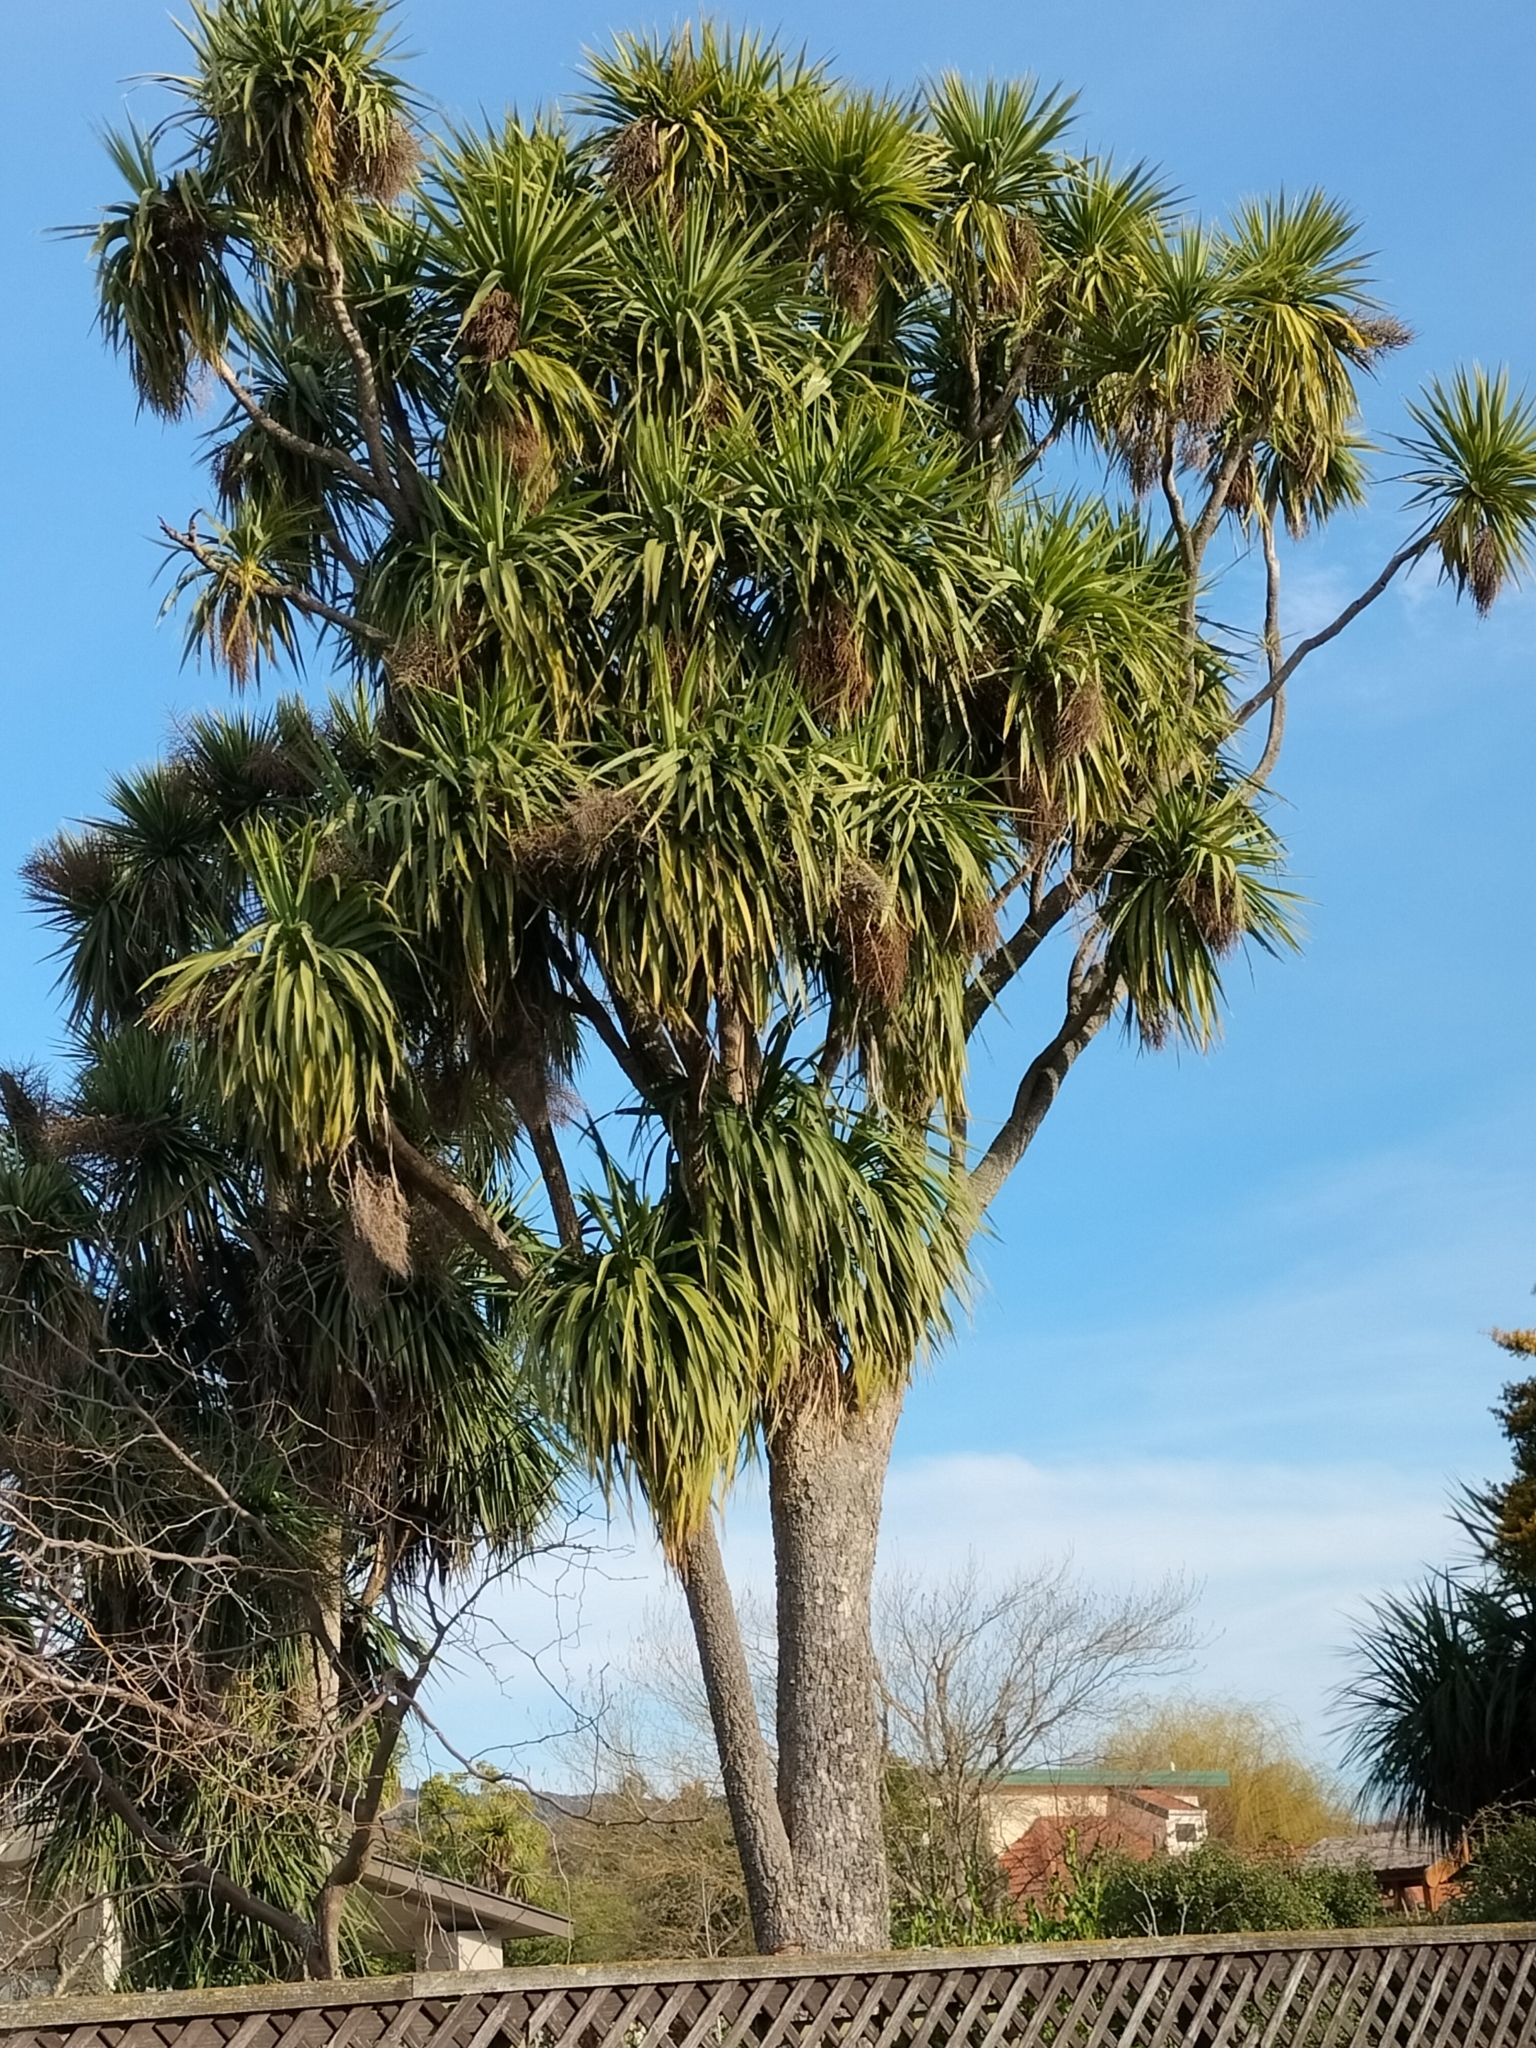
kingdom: Plantae
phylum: Tracheophyta
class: Liliopsida
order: Asparagales
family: Asparagaceae
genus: Cordyline
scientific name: Cordyline australis
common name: Cabbage-palm
